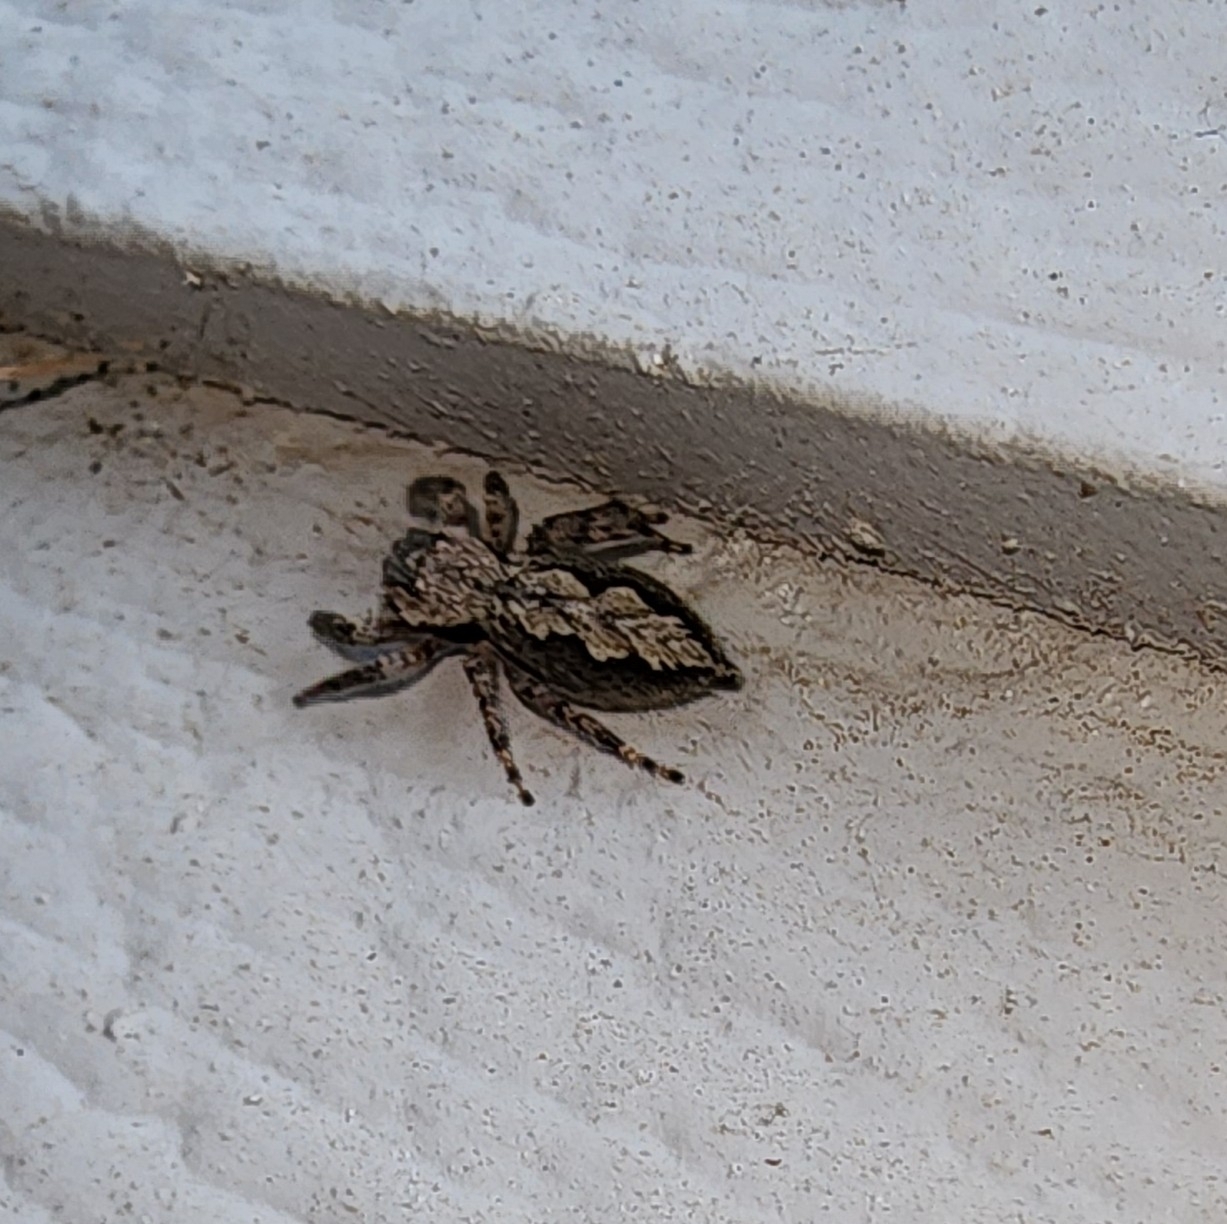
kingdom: Animalia
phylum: Arthropoda
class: Arachnida
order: Araneae
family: Salticidae
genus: Platycryptus
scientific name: Platycryptus undatus
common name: Tan jumping spider
